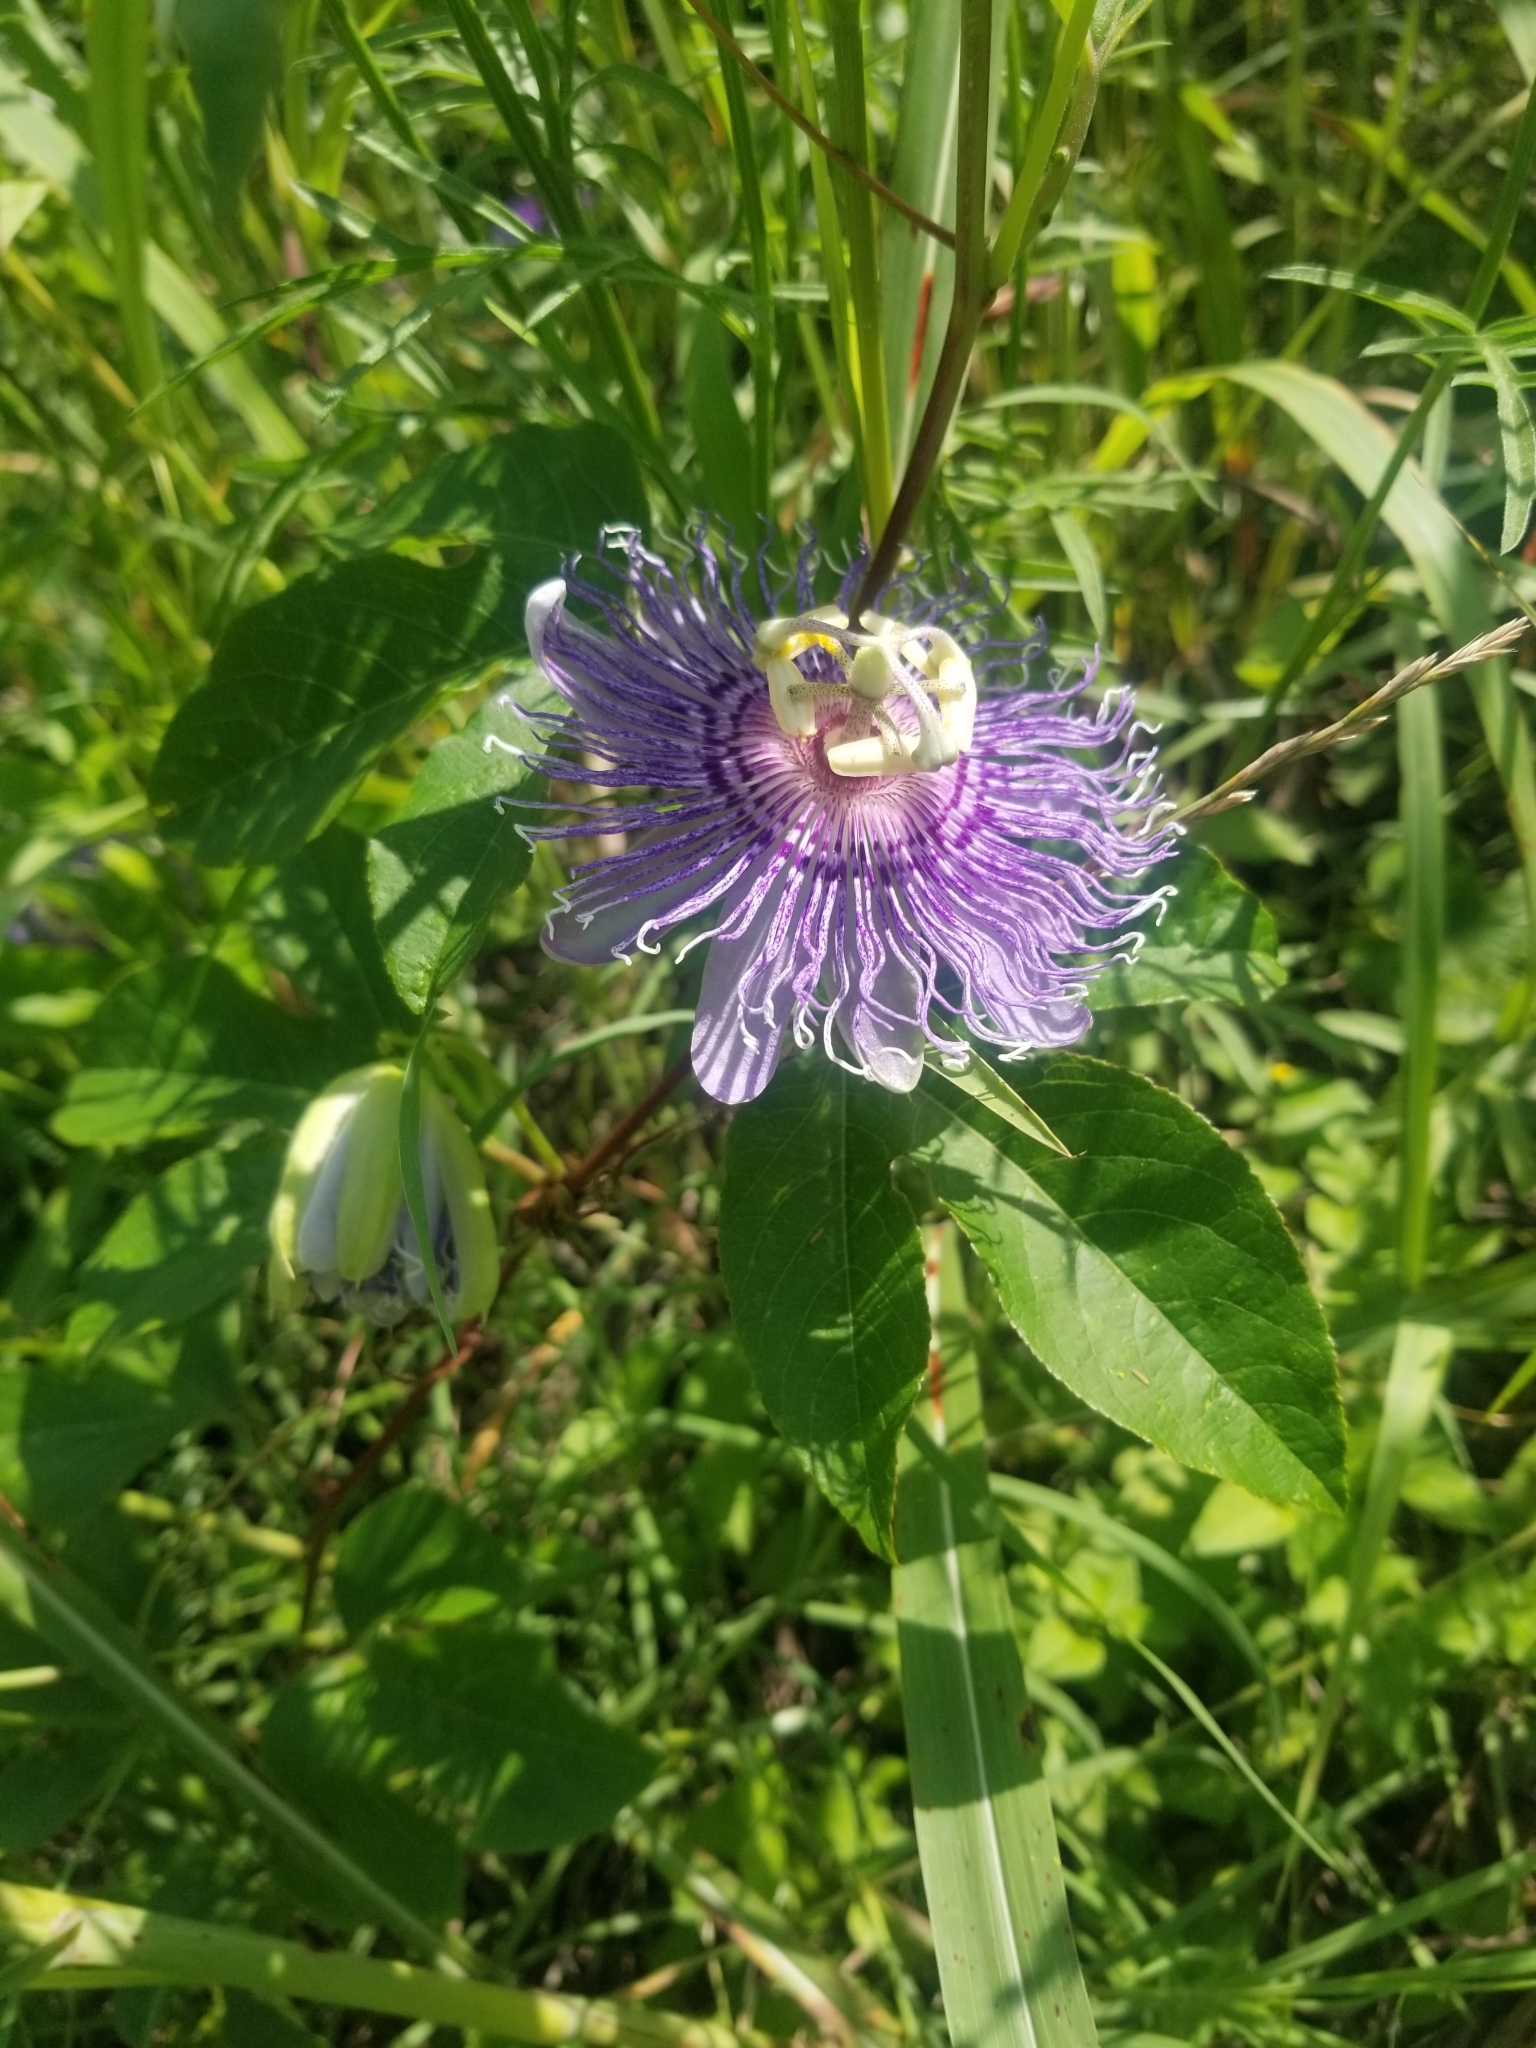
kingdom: Plantae
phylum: Tracheophyta
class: Magnoliopsida
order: Malpighiales
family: Passifloraceae
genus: Passiflora
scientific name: Passiflora incarnata
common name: Apricot-vine
